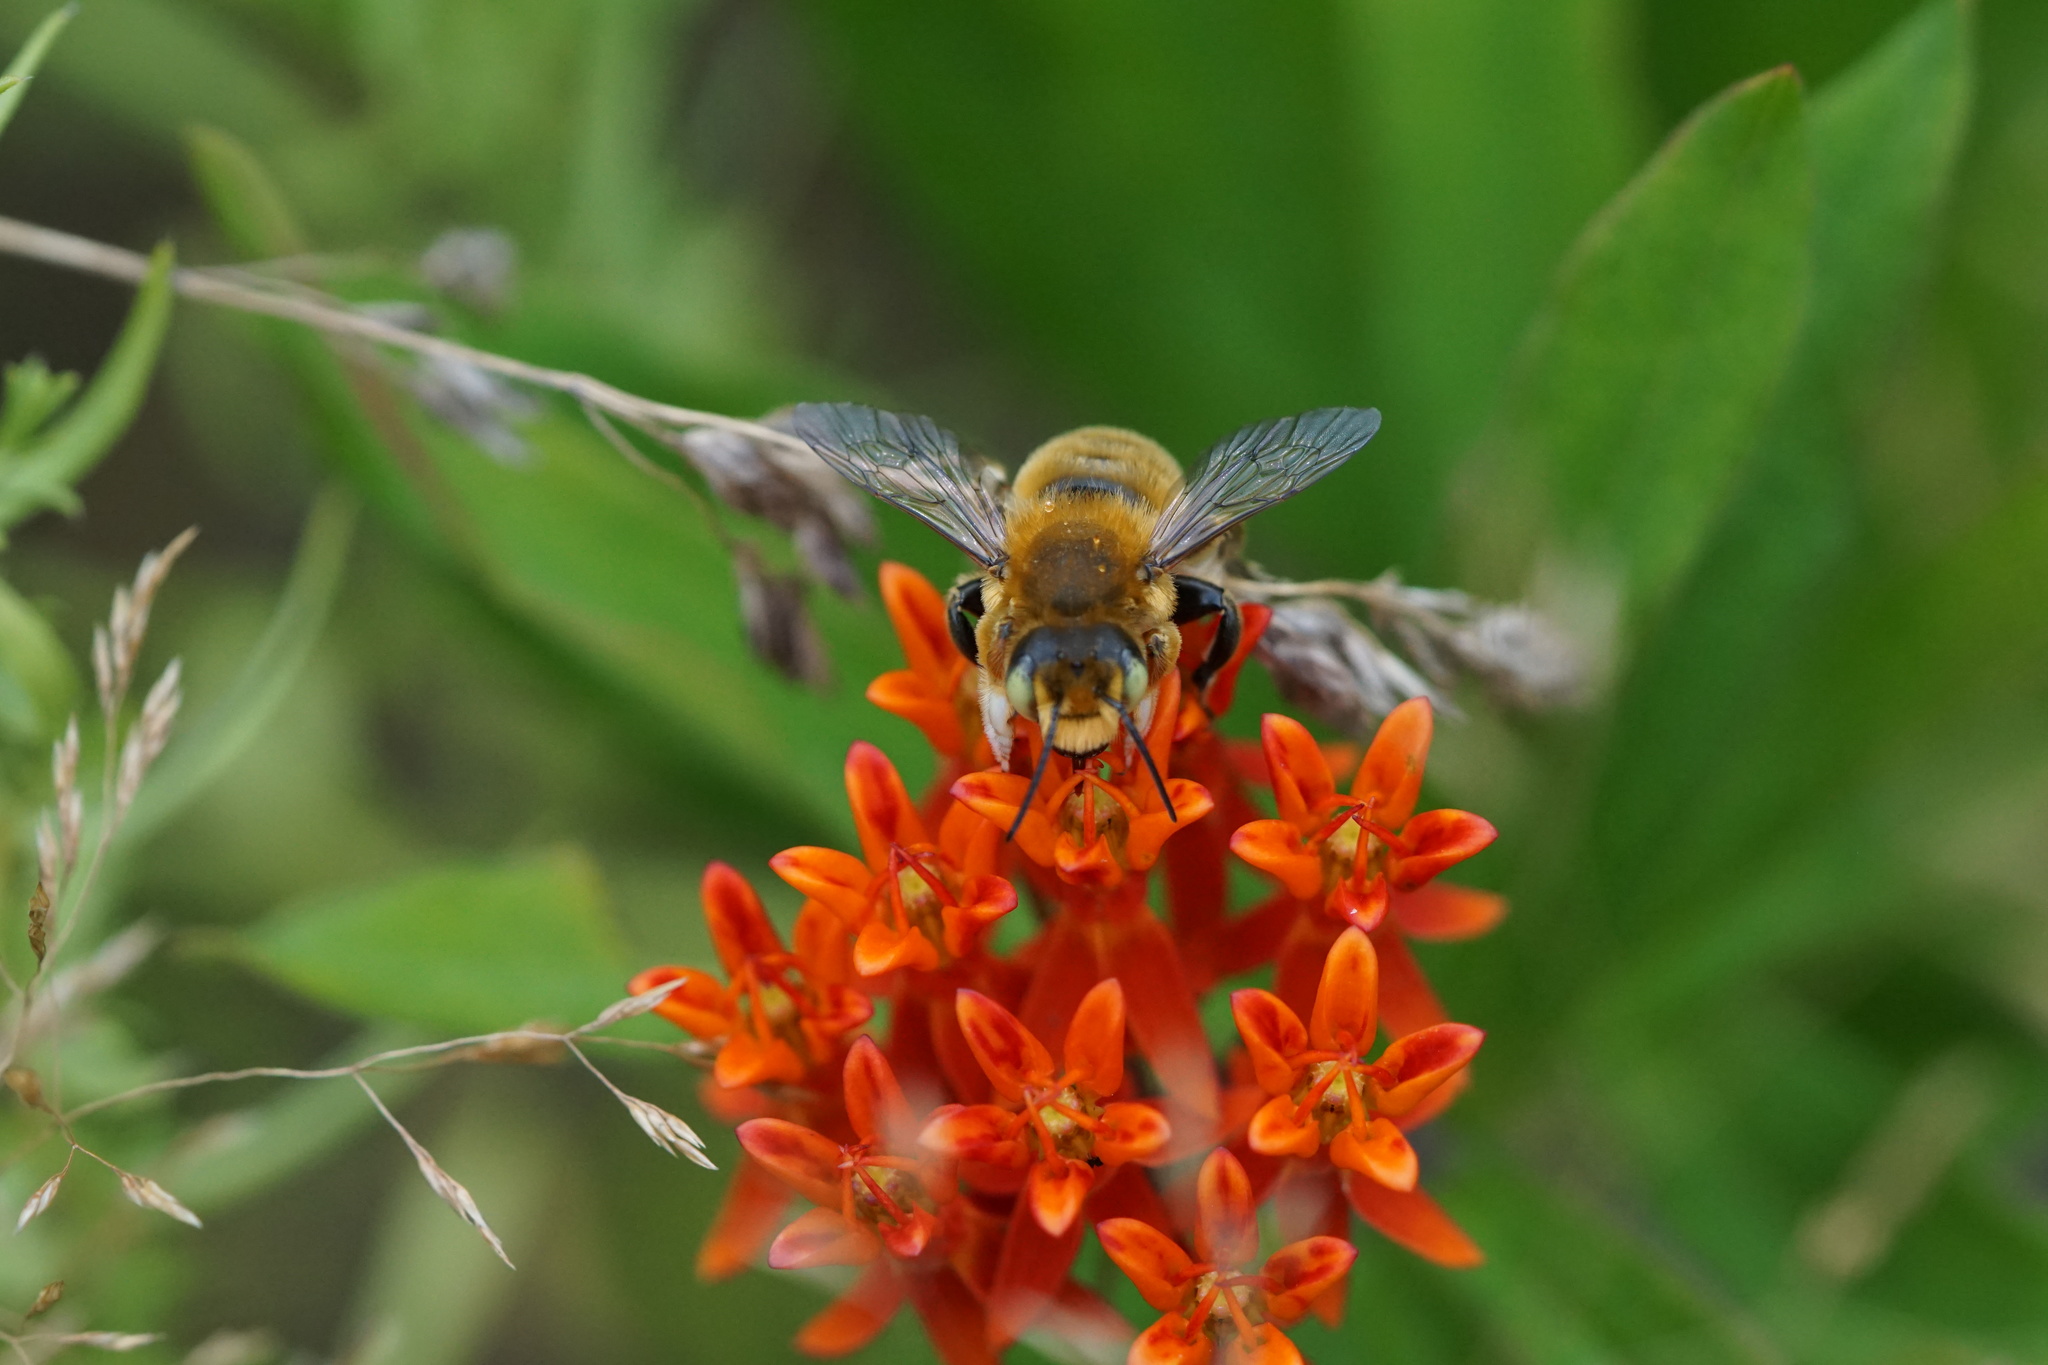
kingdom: Animalia
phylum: Arthropoda
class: Insecta
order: Hymenoptera
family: Megachilidae
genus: Megachile
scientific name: Megachile latimanus
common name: Leafcutting bee
